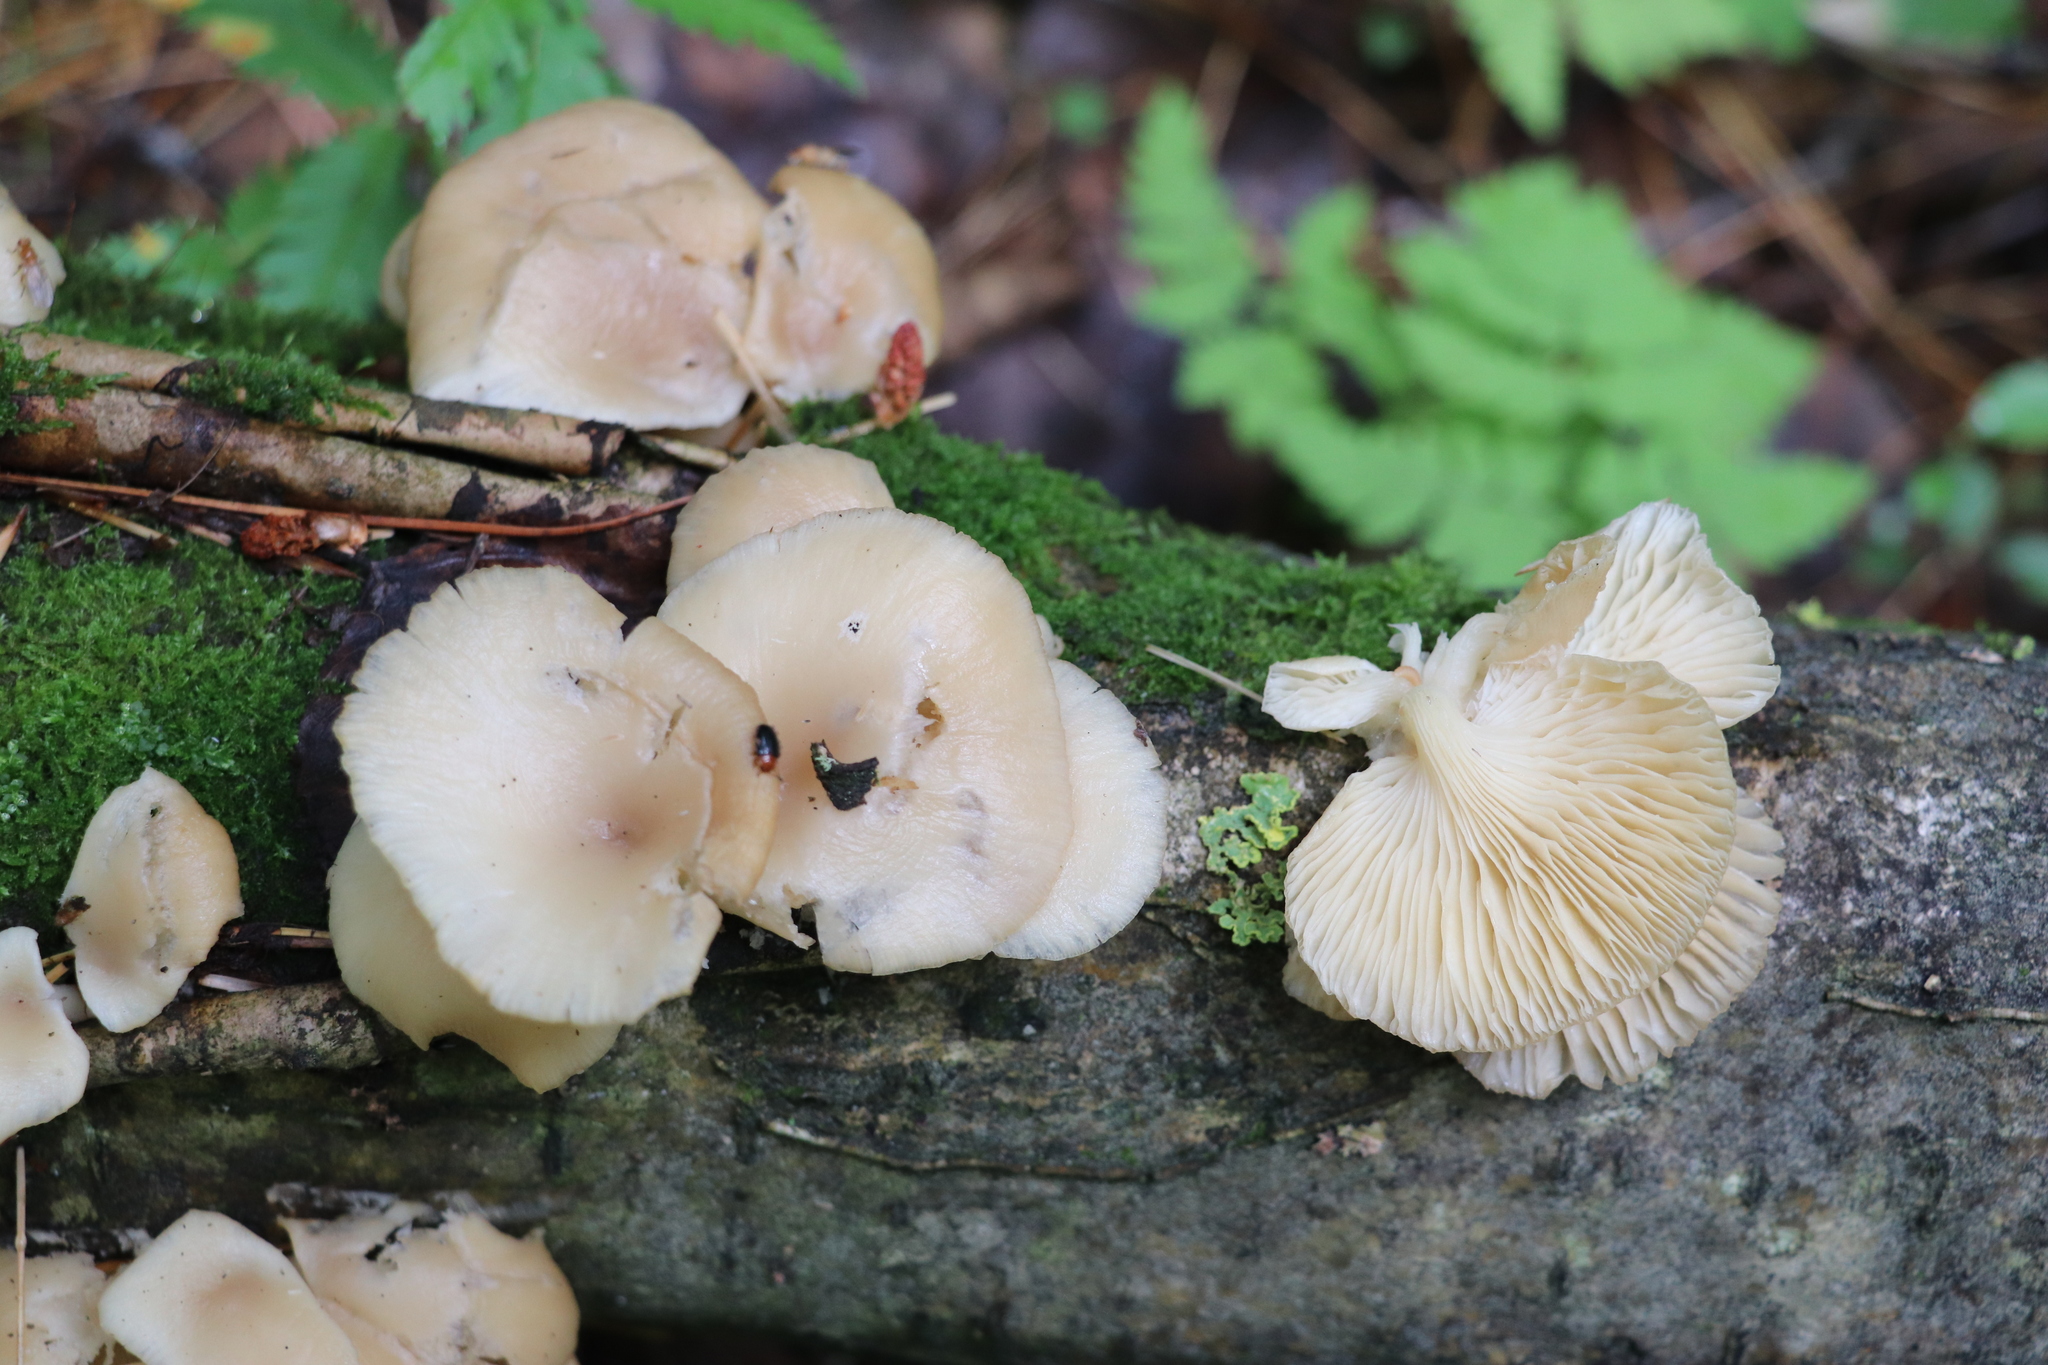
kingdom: Fungi
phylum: Basidiomycota
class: Agaricomycetes
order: Agaricales
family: Pleurotaceae
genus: Pleurotus
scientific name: Pleurotus pulmonarius
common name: Pale oyster
